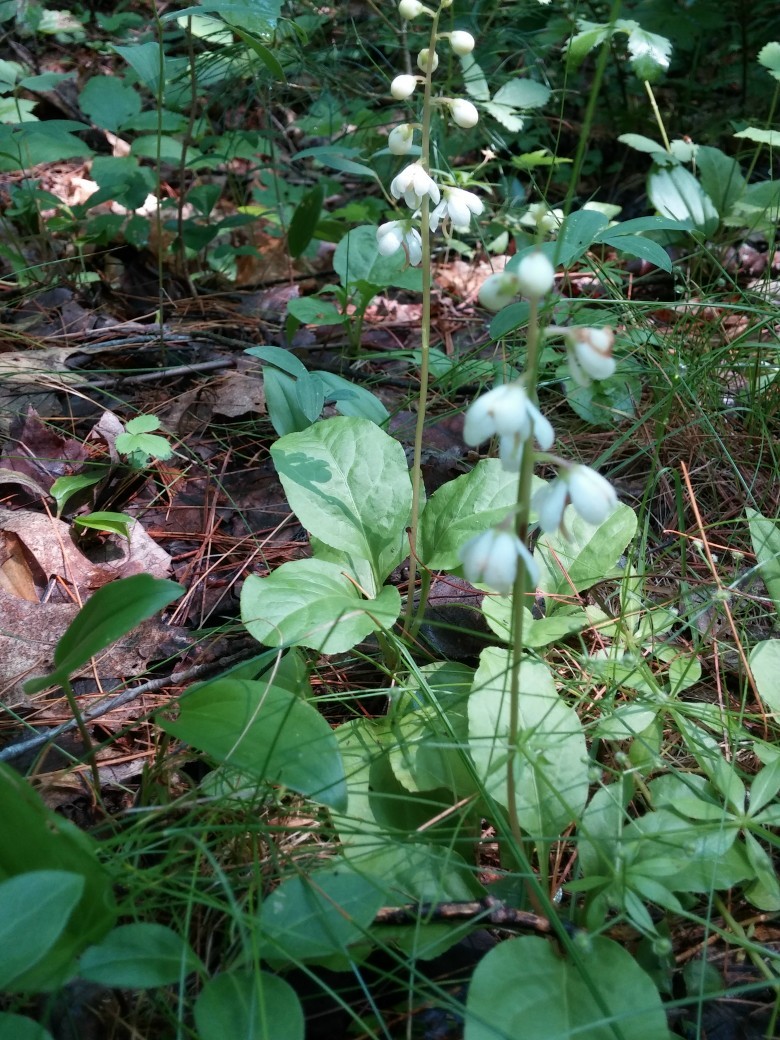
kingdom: Plantae
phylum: Tracheophyta
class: Magnoliopsida
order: Ericales
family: Ericaceae
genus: Pyrola
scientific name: Pyrola elliptica
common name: Shinleaf
